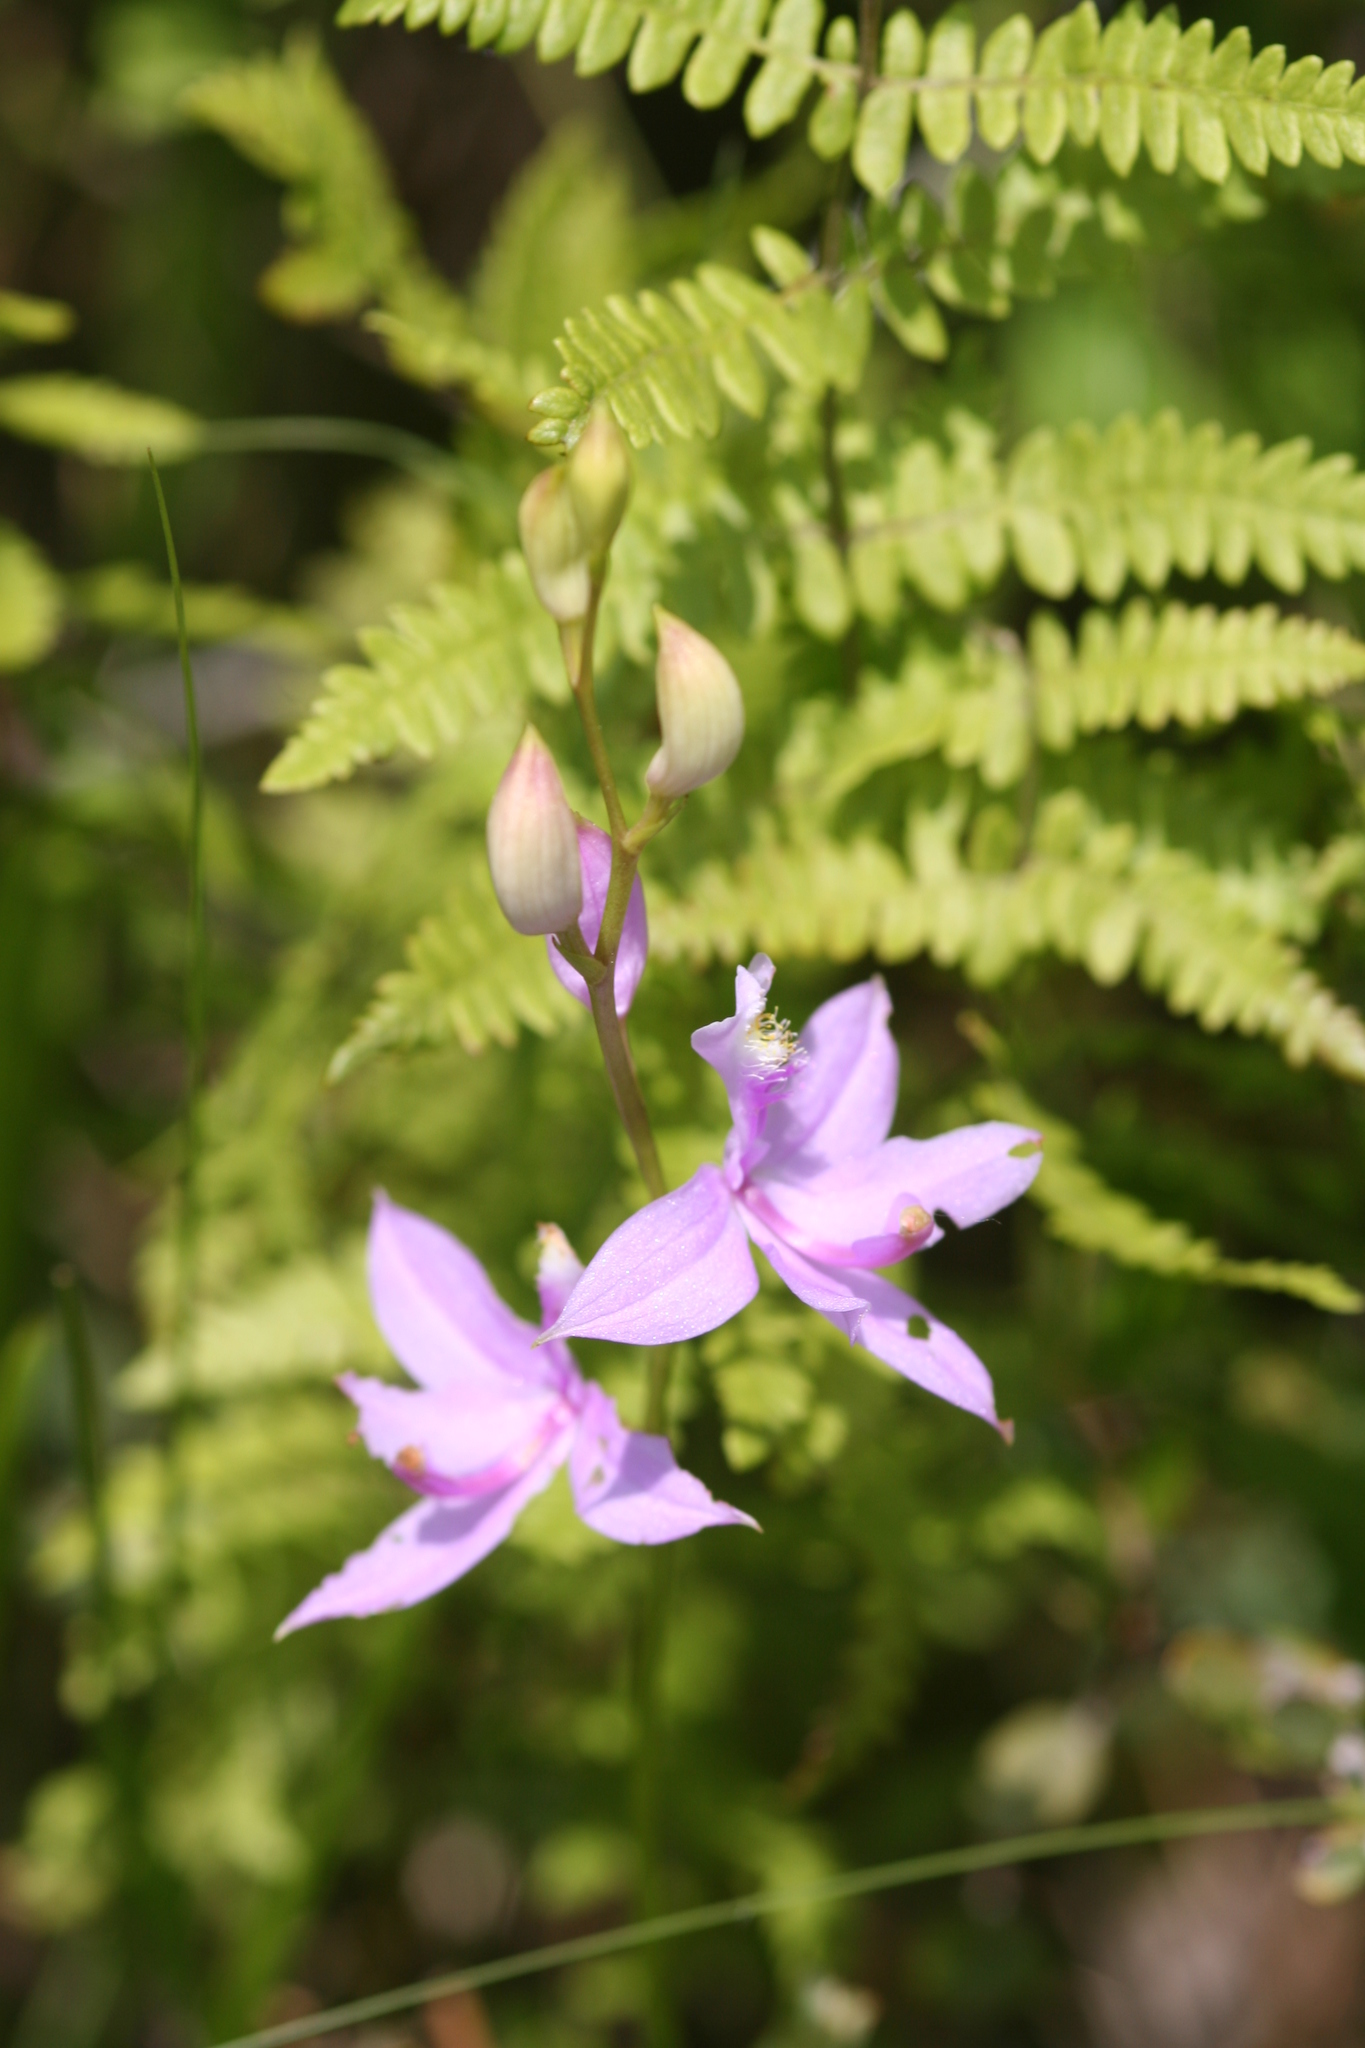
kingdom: Plantae
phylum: Tracheophyta
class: Liliopsida
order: Asparagales
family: Orchidaceae
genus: Calopogon
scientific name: Calopogon tuberosus
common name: Grass-pink
